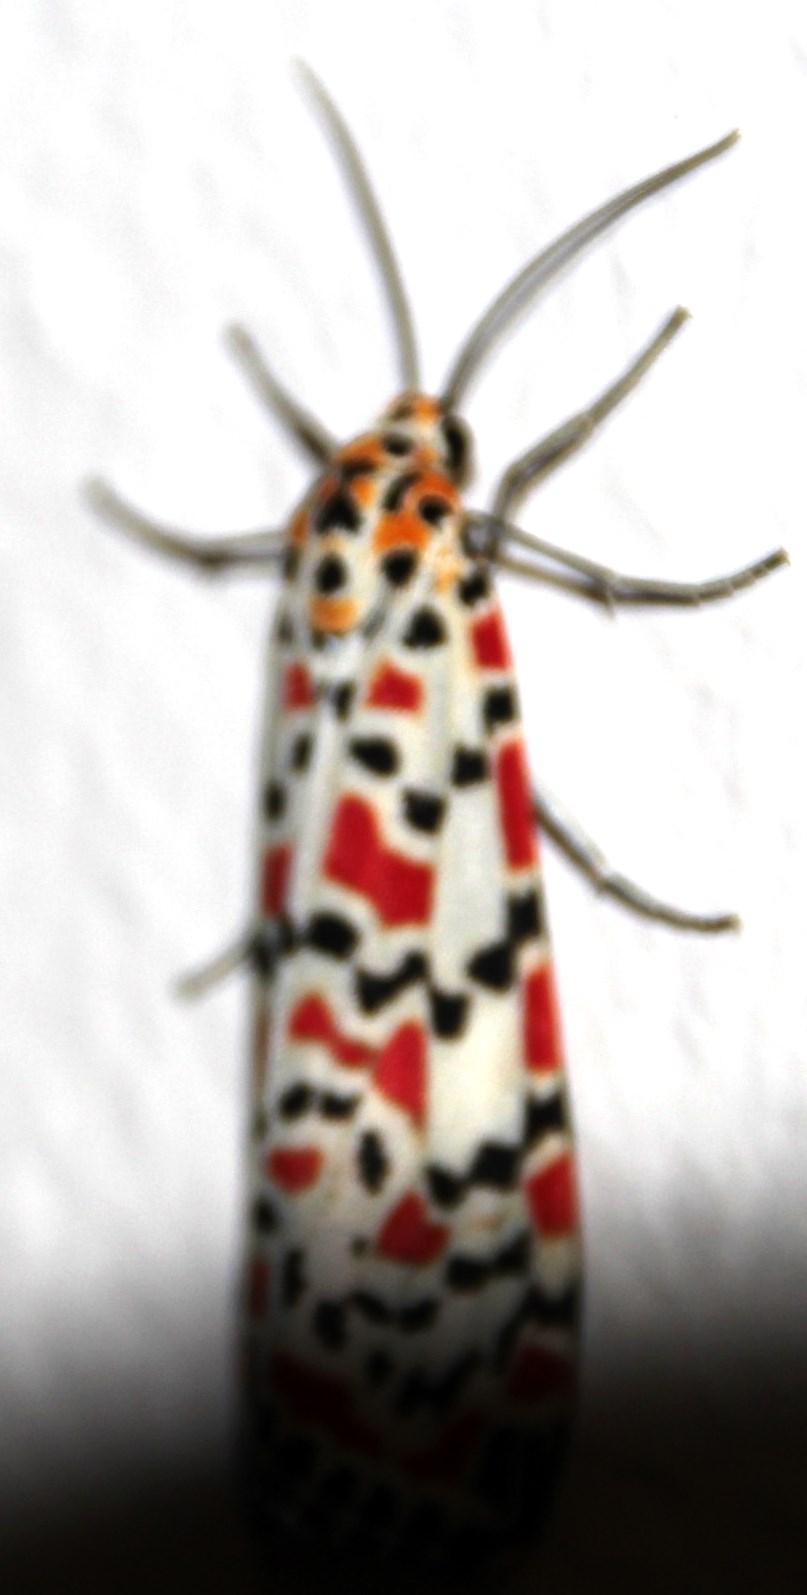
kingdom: Animalia
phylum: Arthropoda
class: Insecta
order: Lepidoptera
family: Erebidae
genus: Utetheisa
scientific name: Utetheisa pulchella
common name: Crimson speckled
